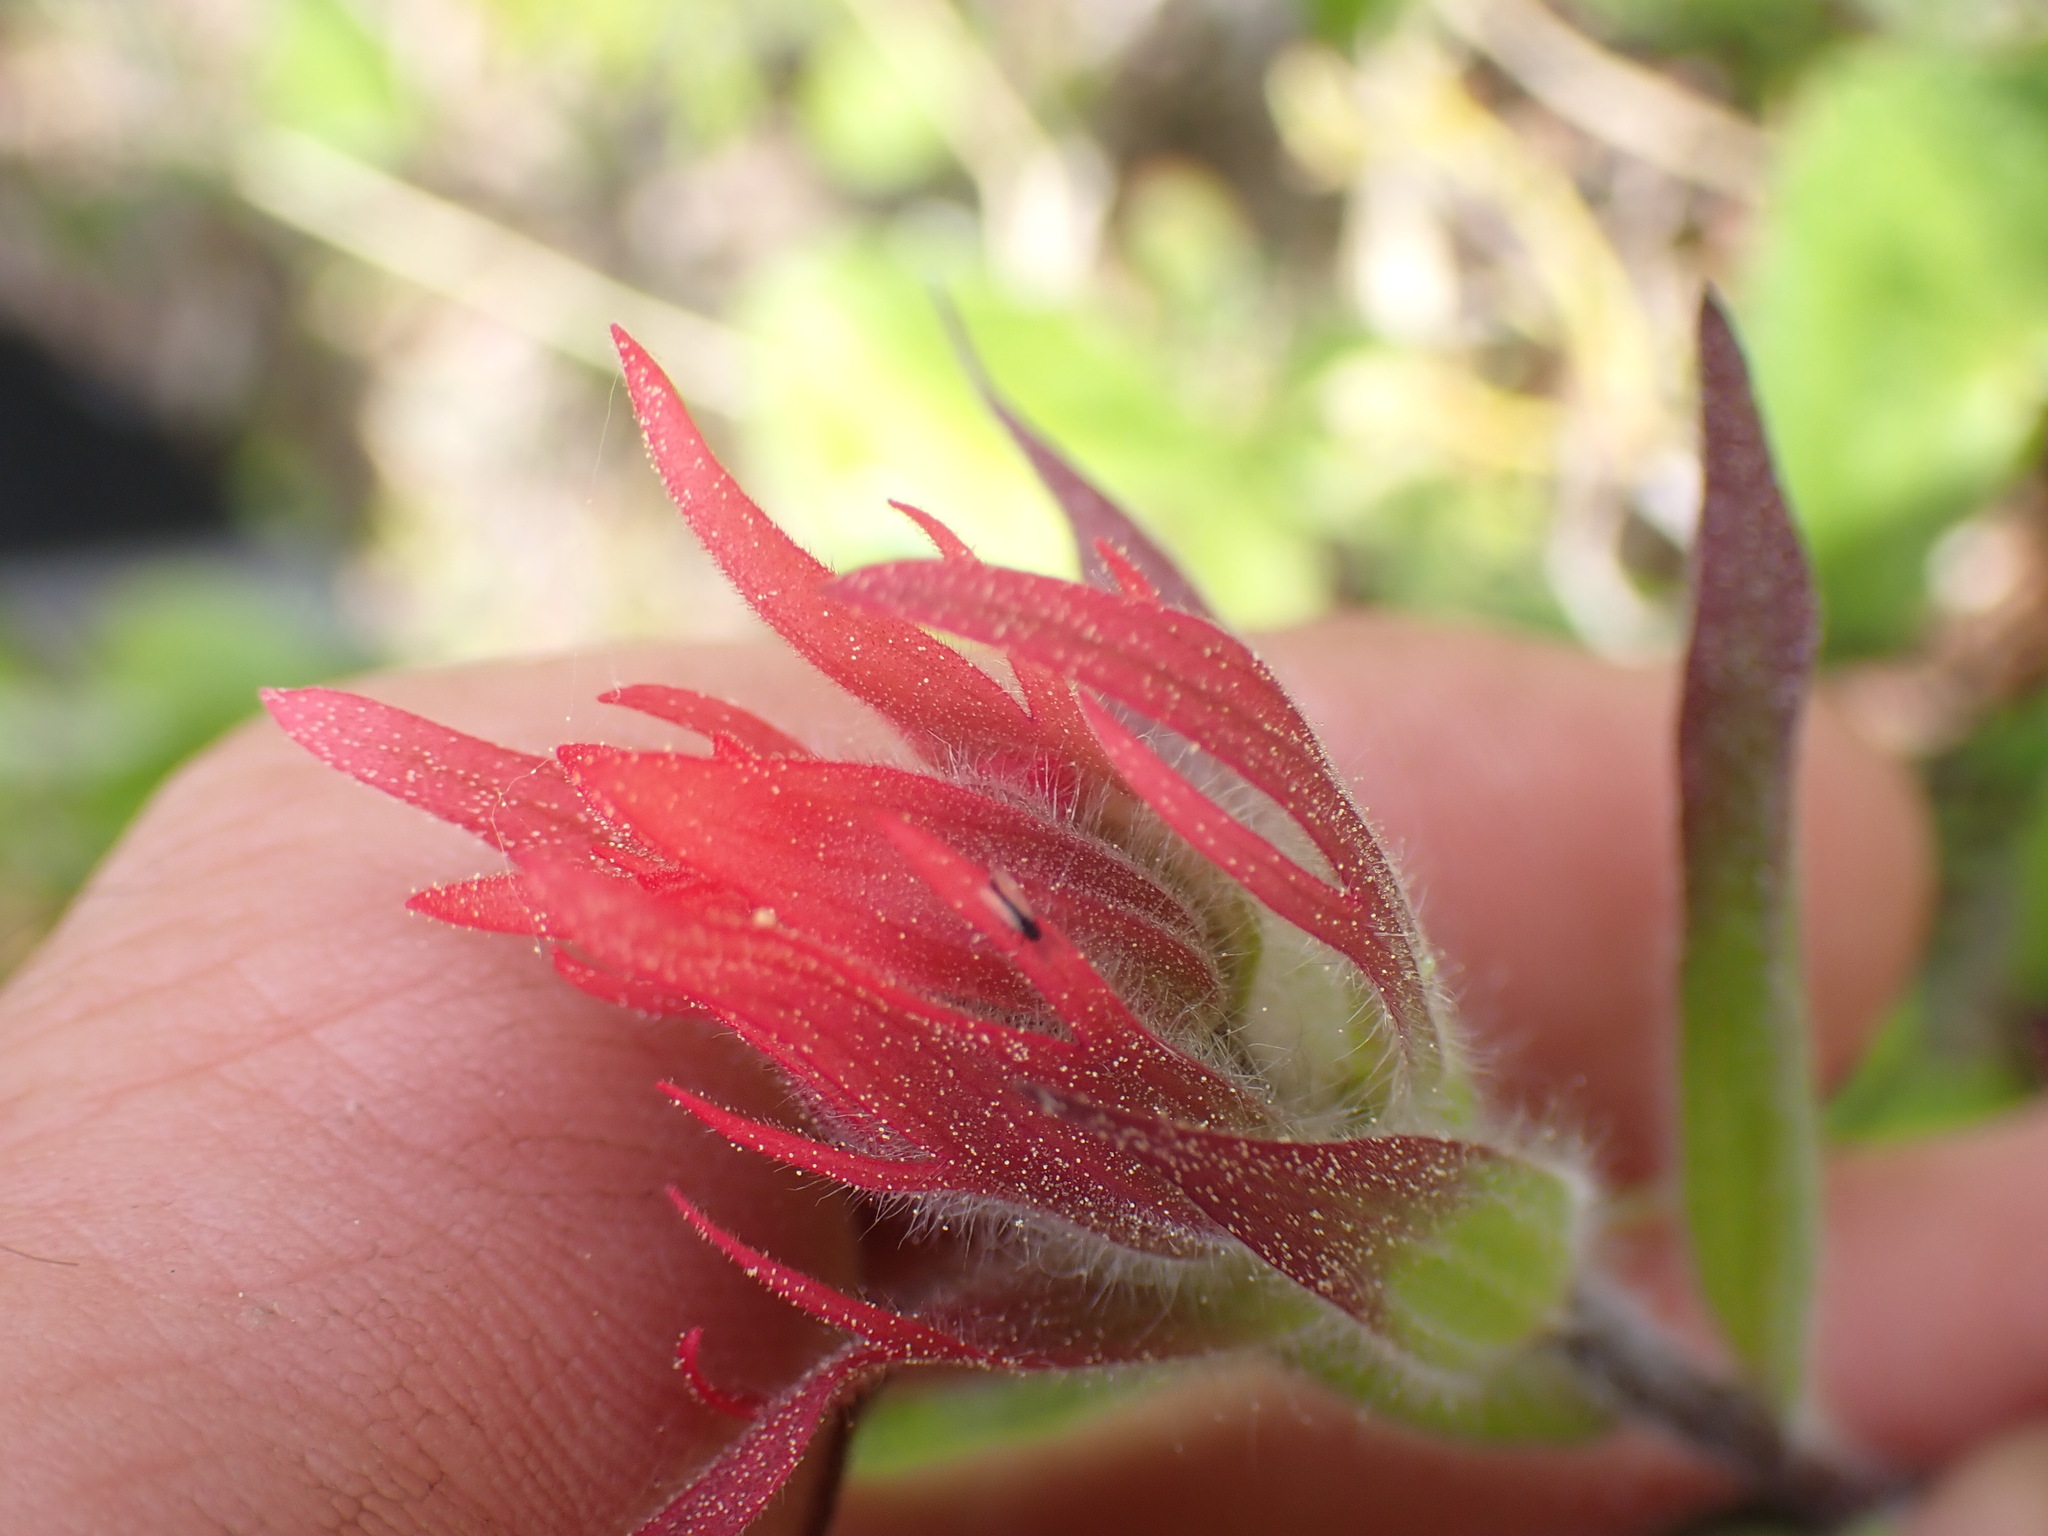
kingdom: Plantae
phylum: Tracheophyta
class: Magnoliopsida
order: Lamiales
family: Orobanchaceae
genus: Castilleja
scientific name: Castilleja miniata
